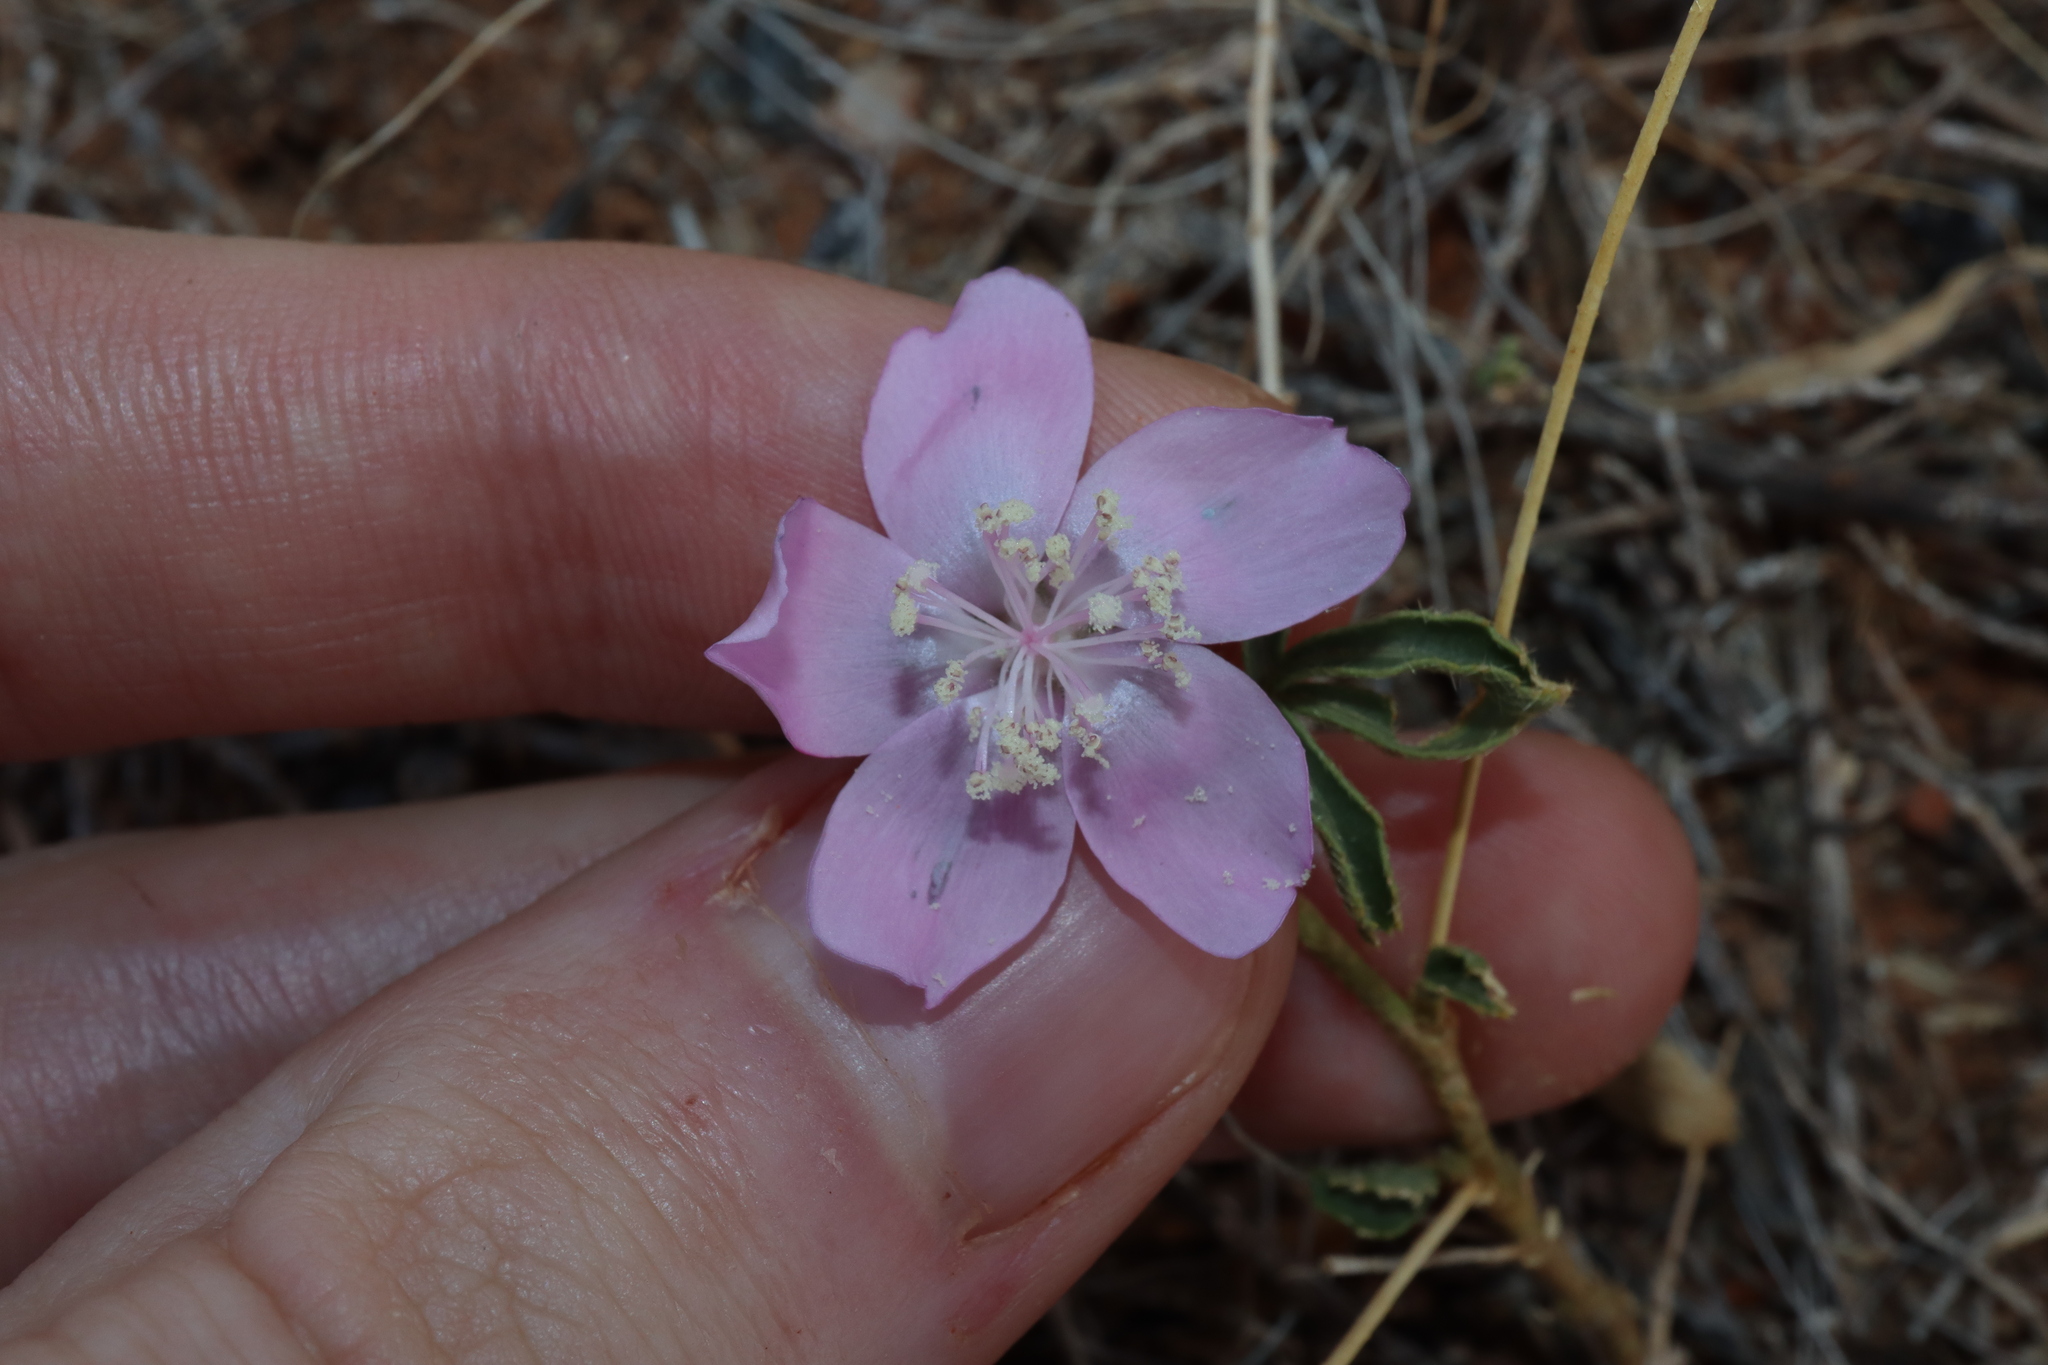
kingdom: Plantae
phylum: Tracheophyta
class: Magnoliopsida
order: Malvales
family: Malvaceae
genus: Hibiscus
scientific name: Hibiscus brachysiphonius
